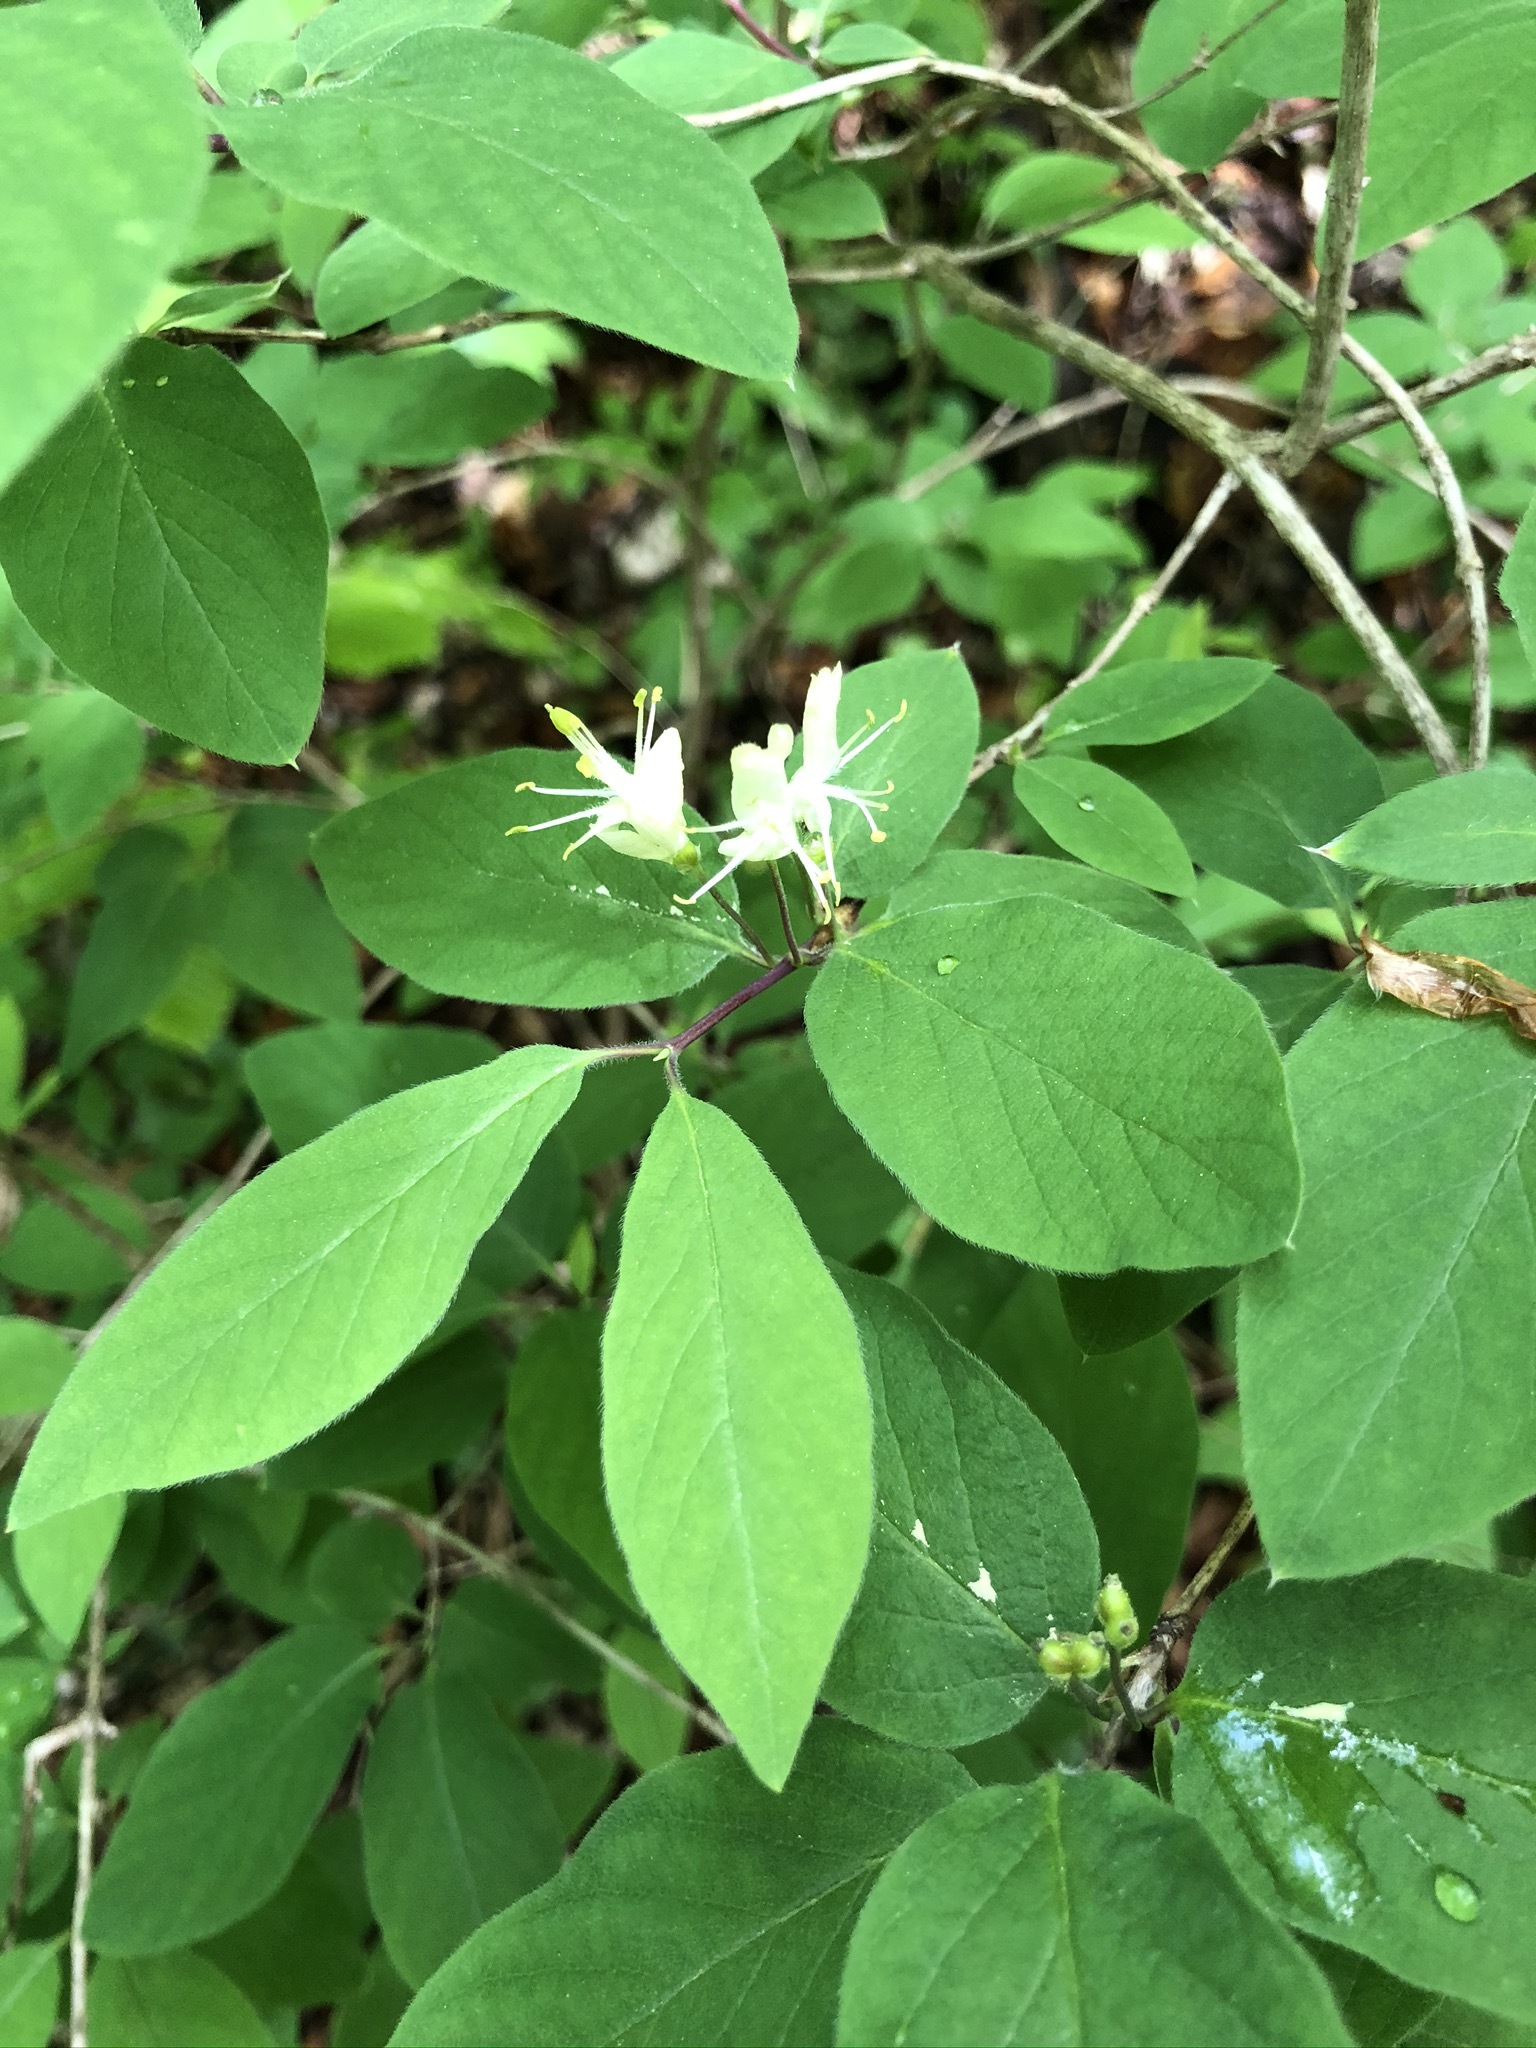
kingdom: Plantae
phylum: Tracheophyta
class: Magnoliopsida
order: Dipsacales
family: Caprifoliaceae
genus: Lonicera
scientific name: Lonicera xylosteum
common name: Fly honeysuckle
